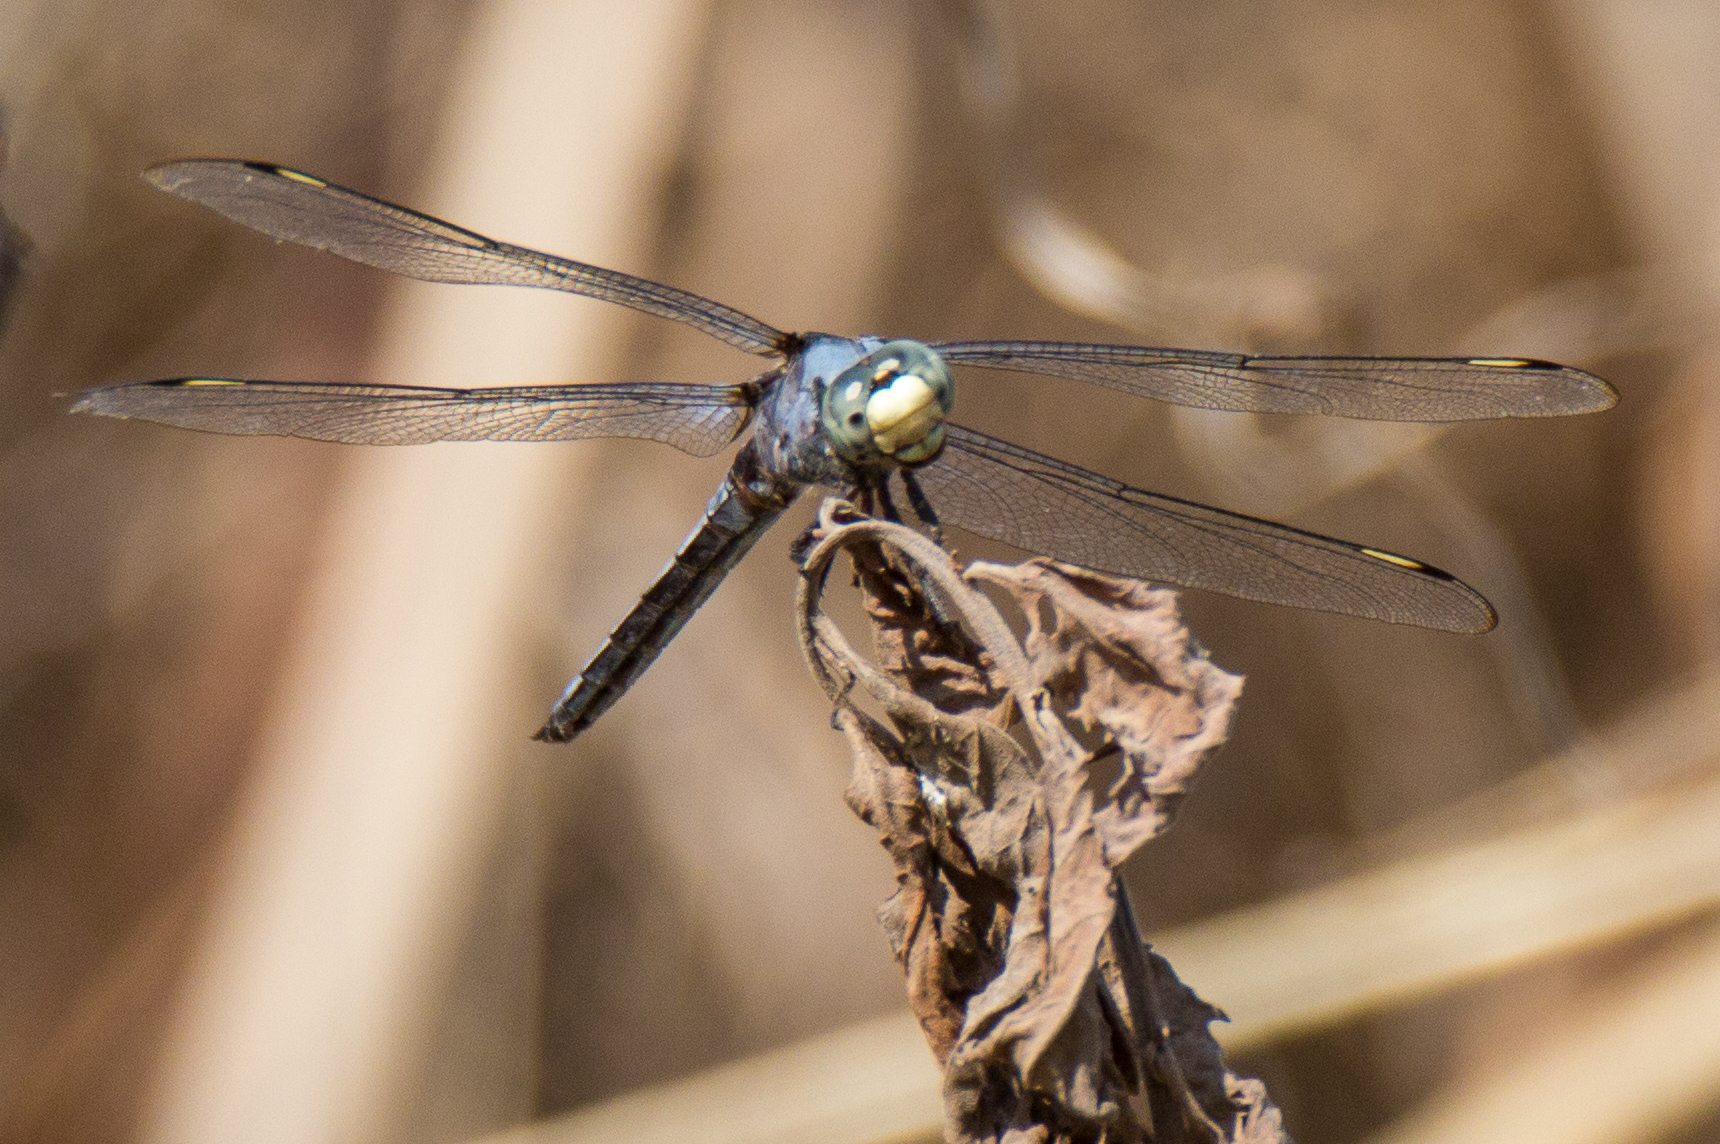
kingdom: Animalia
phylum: Arthropoda
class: Insecta
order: Odonata
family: Libellulidae
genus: Libellula
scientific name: Libellula comanche
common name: Comanche skimmer
